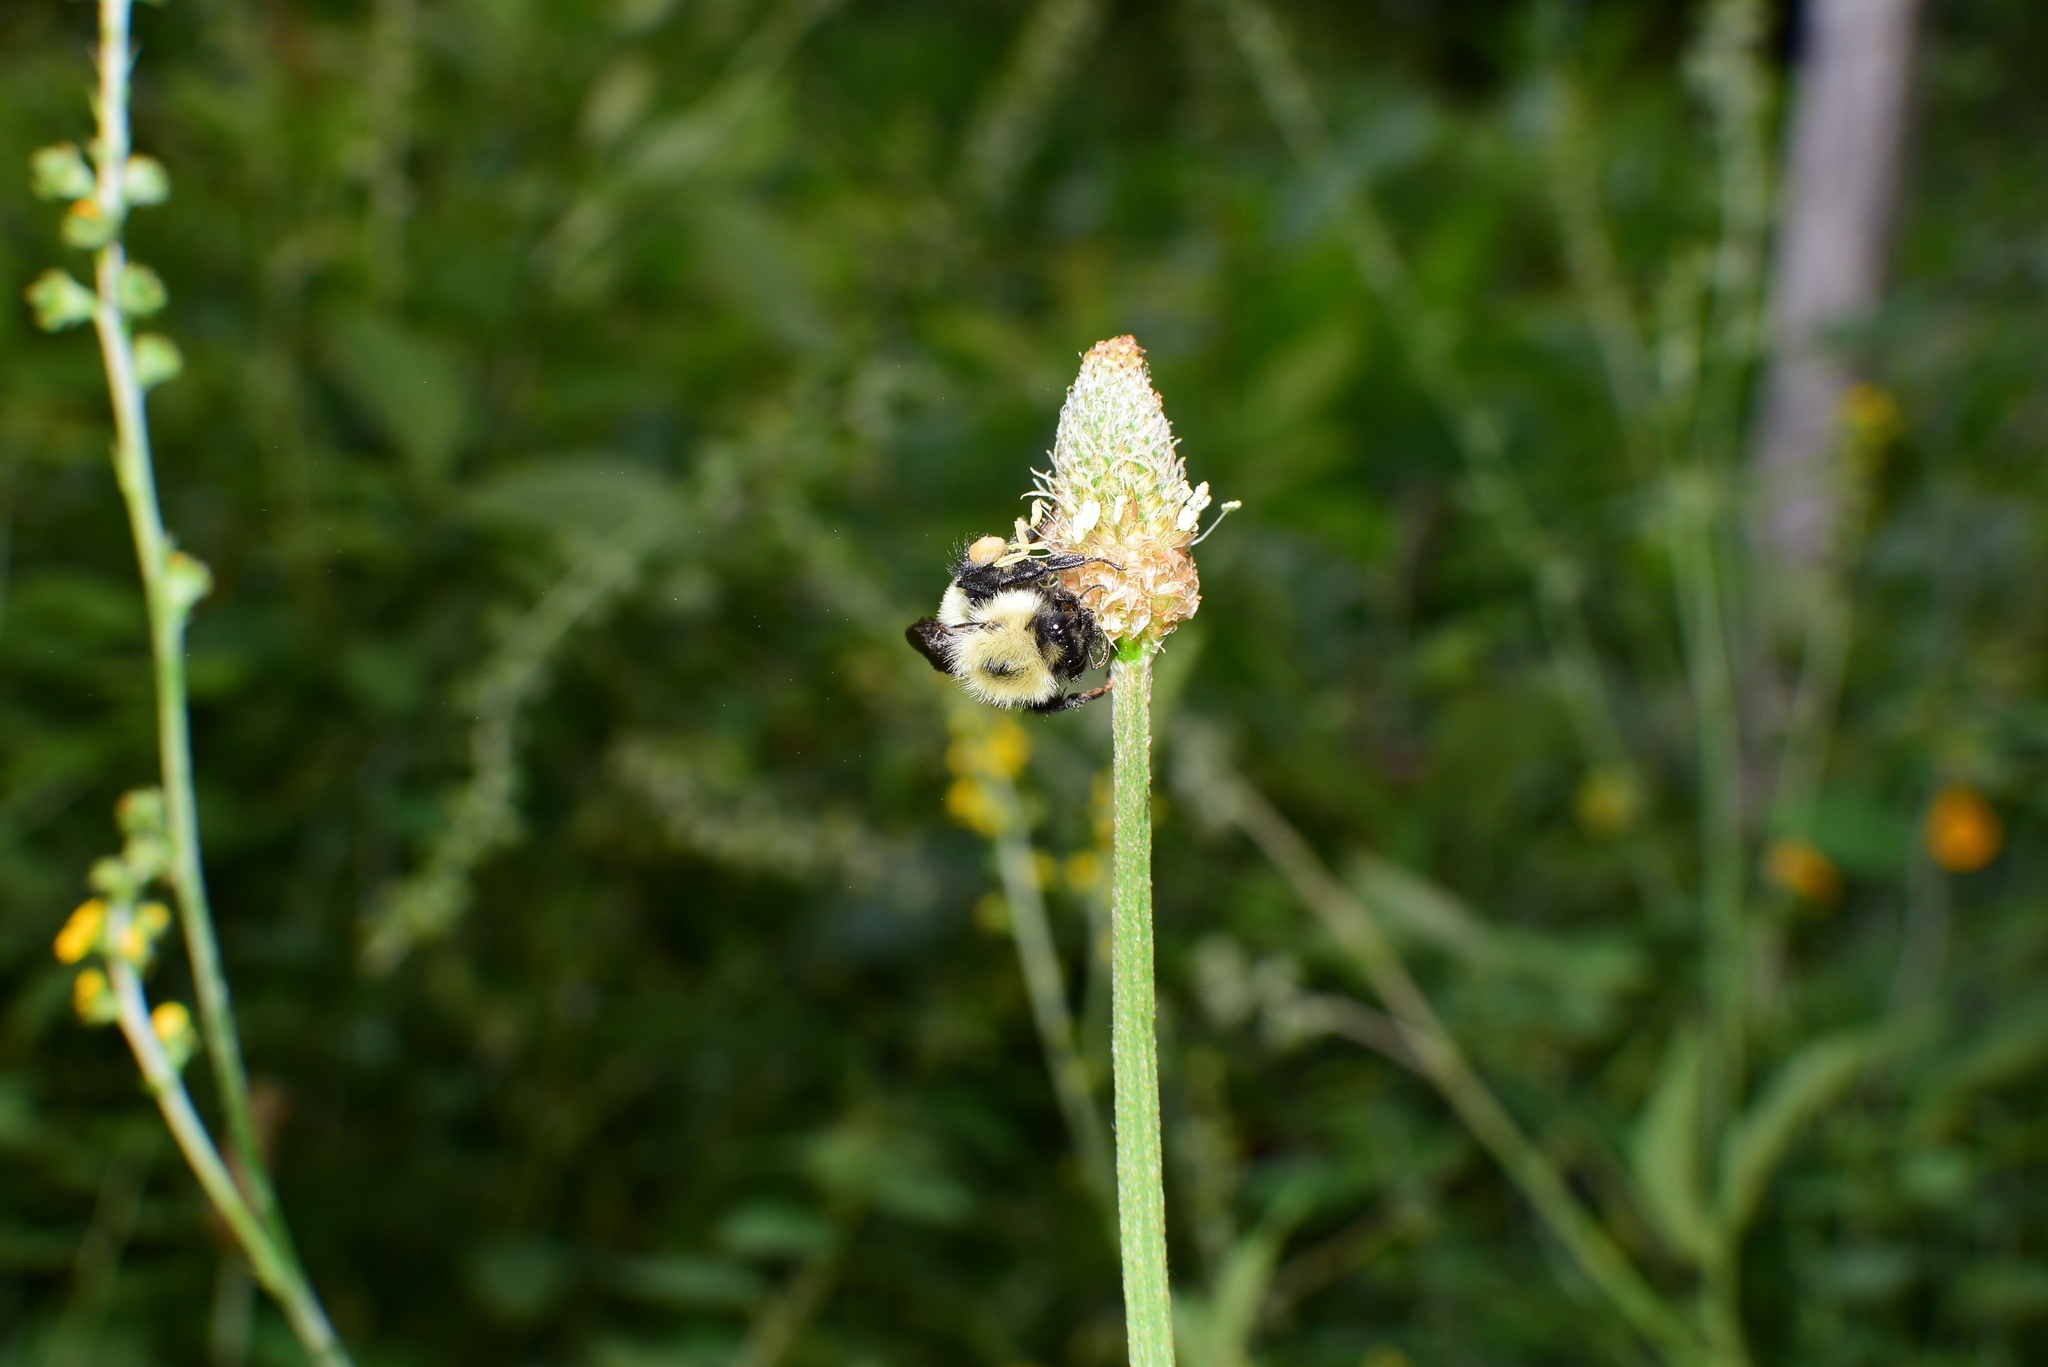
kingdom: Animalia
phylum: Arthropoda
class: Insecta
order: Hymenoptera
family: Apidae
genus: Pyrobombus
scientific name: Pyrobombus
